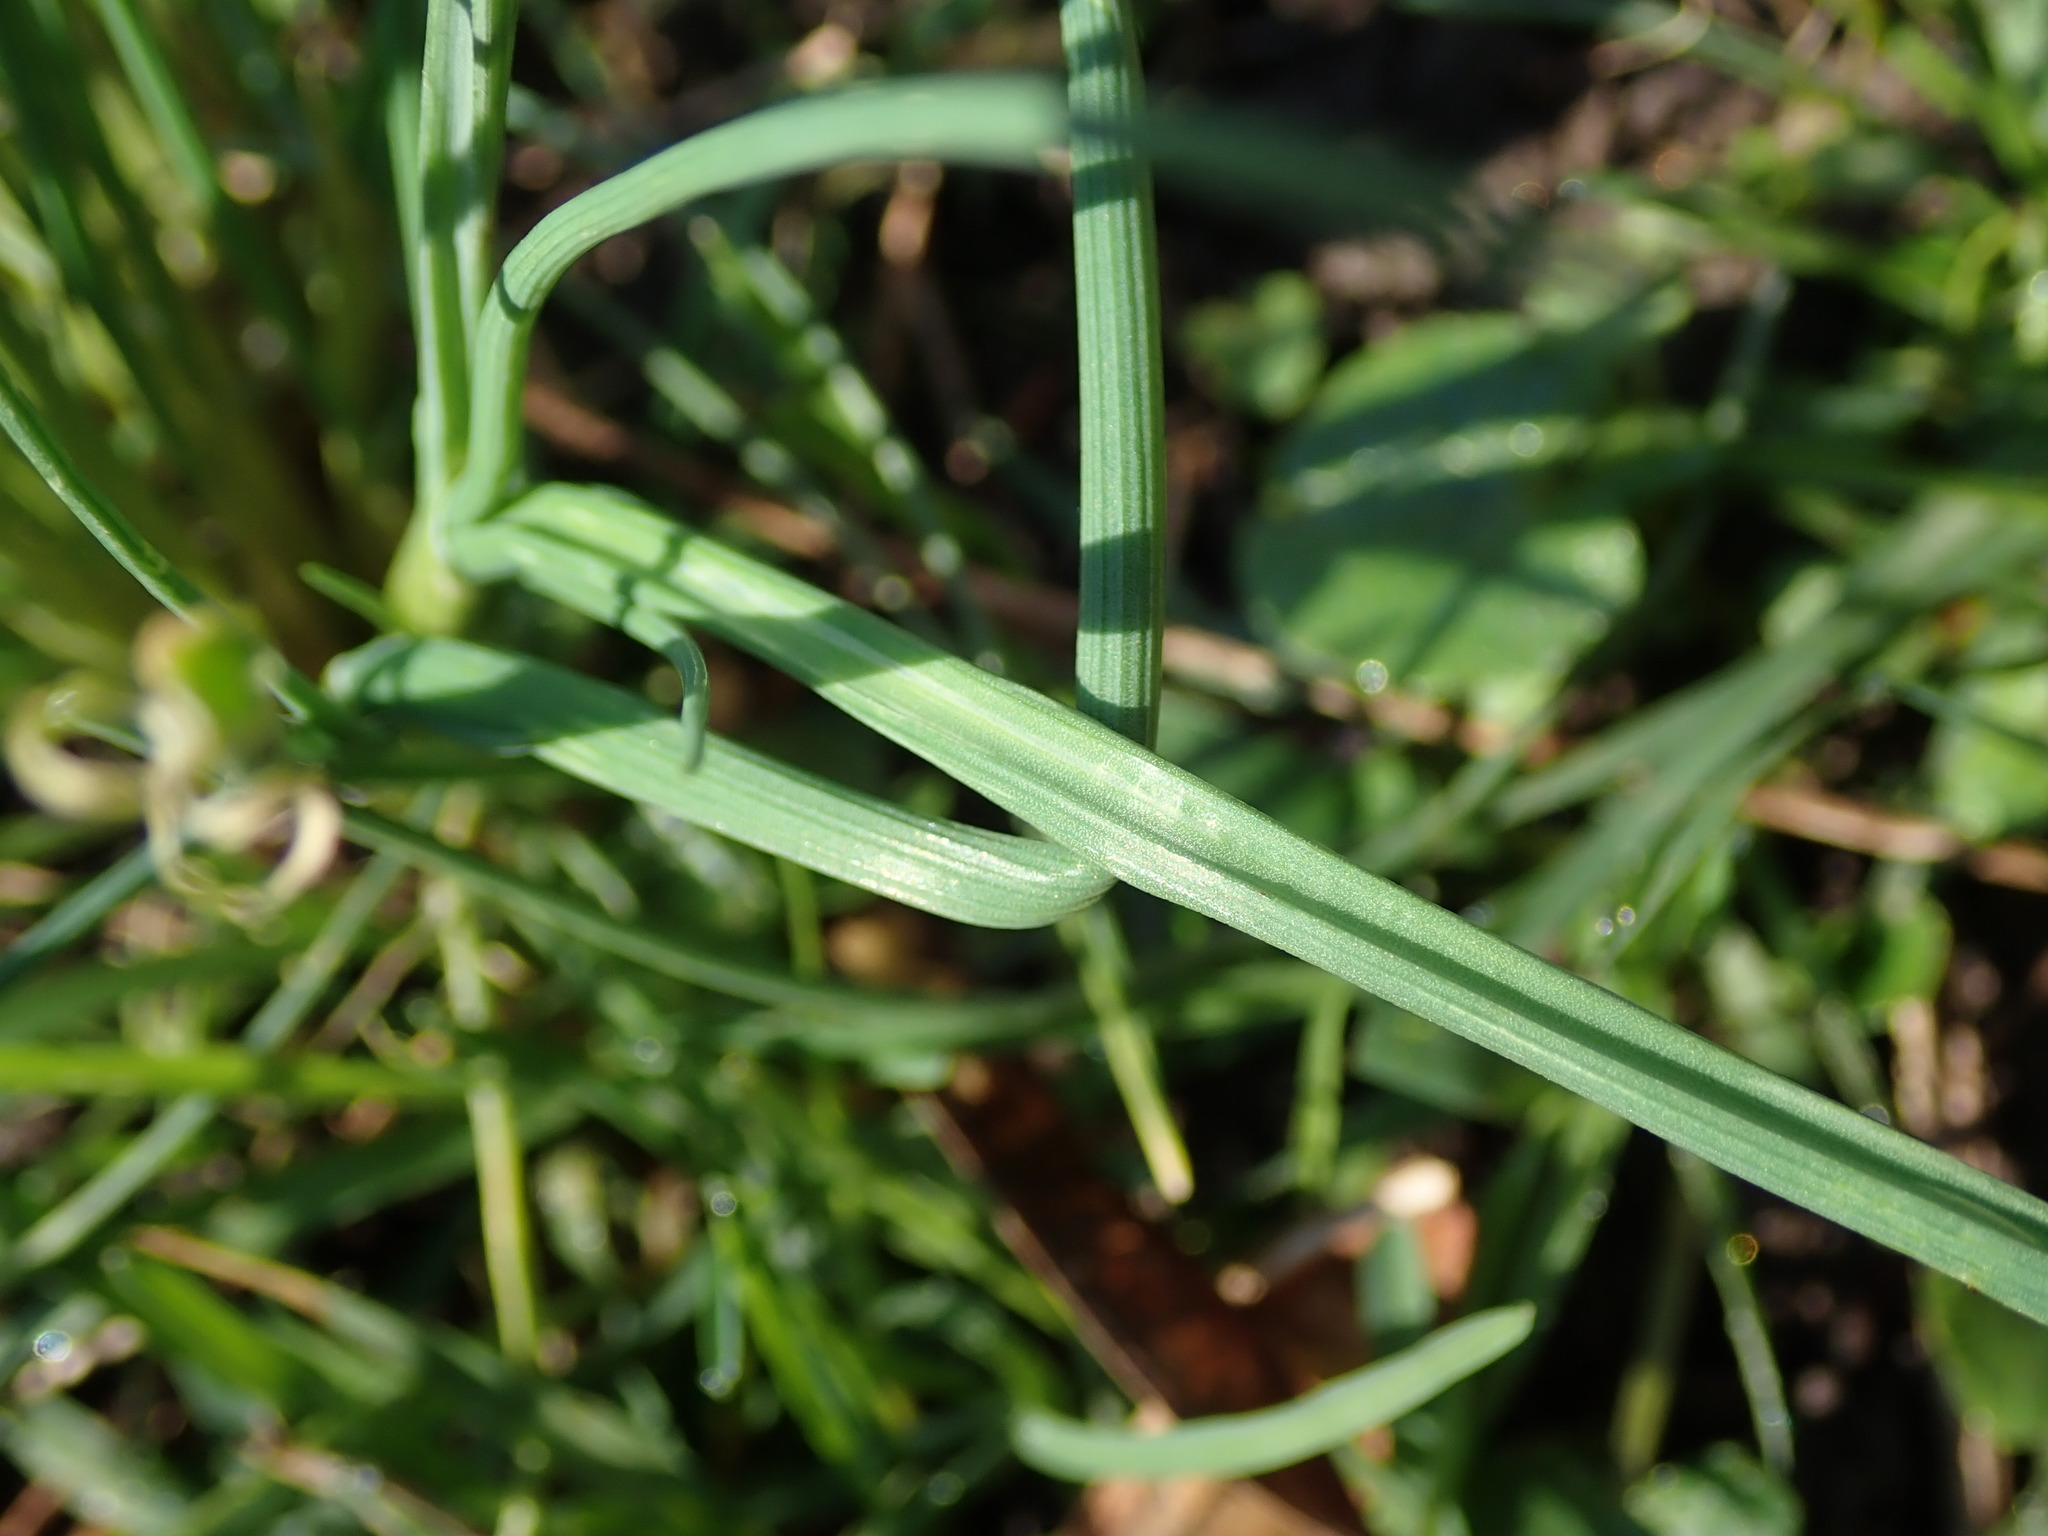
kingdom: Plantae
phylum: Tracheophyta
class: Liliopsida
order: Asparagales
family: Amaryllidaceae
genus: Allium
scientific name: Allium vineale
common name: Crow garlic
